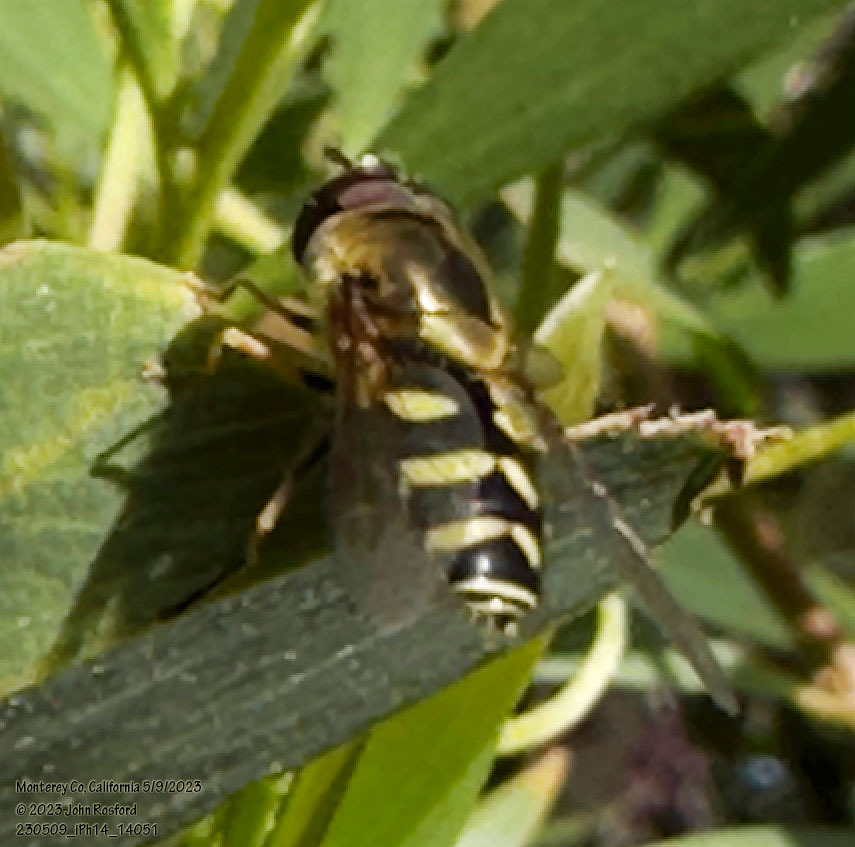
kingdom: Animalia
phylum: Arthropoda
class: Insecta
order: Diptera
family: Syrphidae
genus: Syrphus
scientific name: Syrphus opinator
